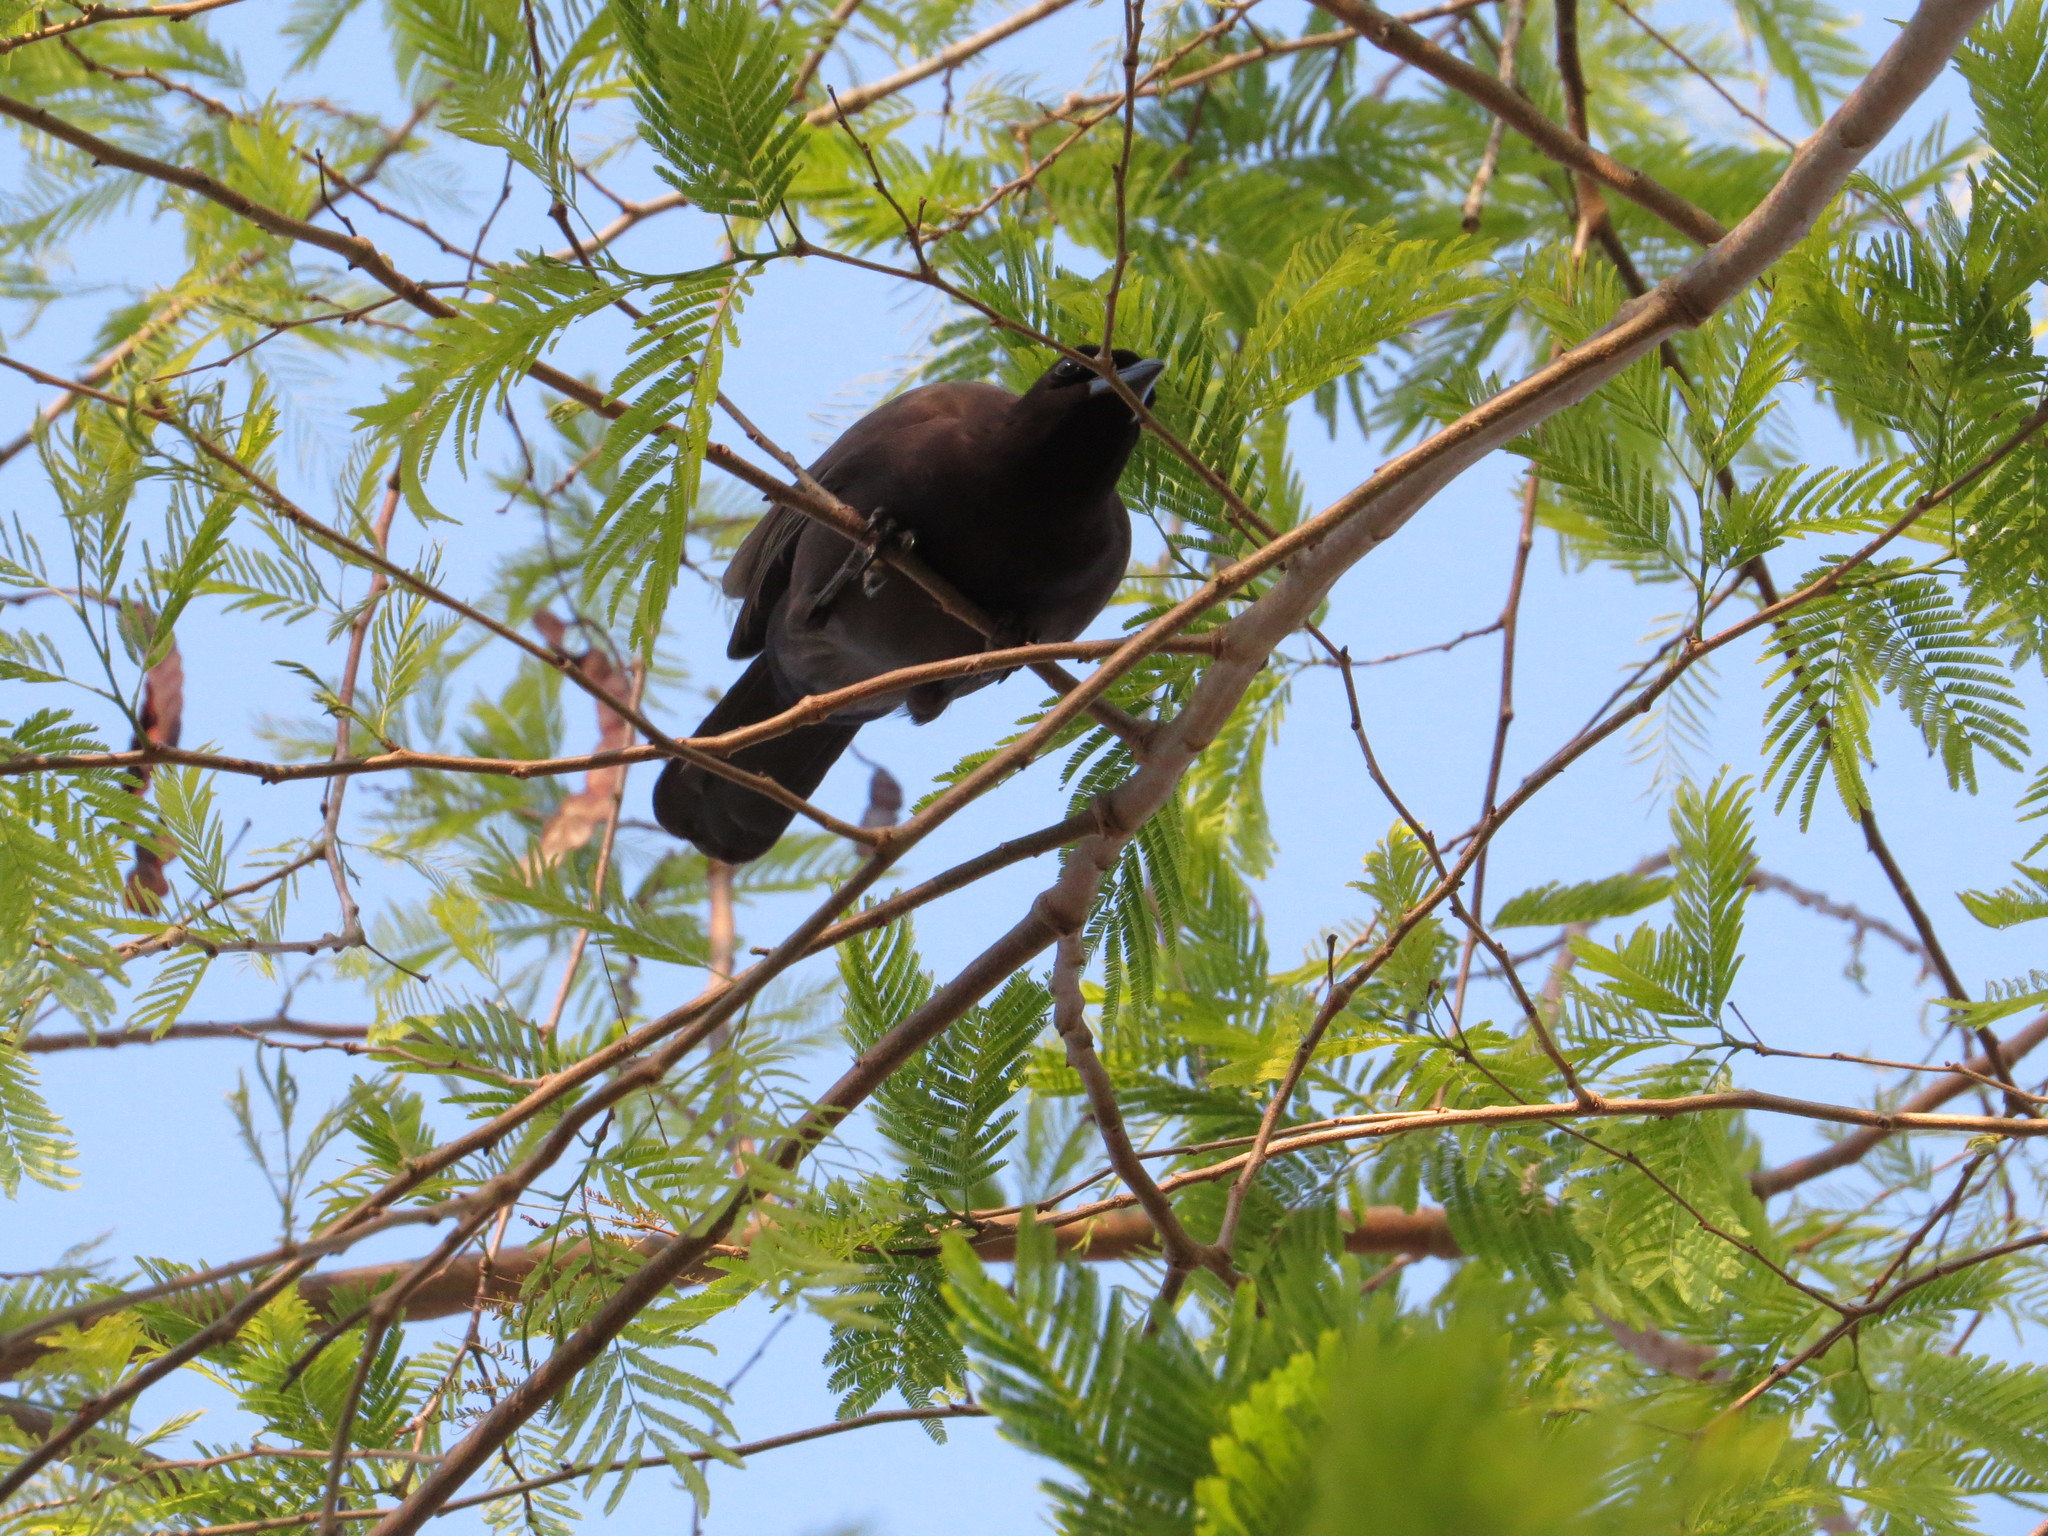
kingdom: Animalia
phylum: Chordata
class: Aves
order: Passeriformes
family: Corvidae
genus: Cyanocorax
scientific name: Cyanocorax cyanomelas
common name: Purplish jay
